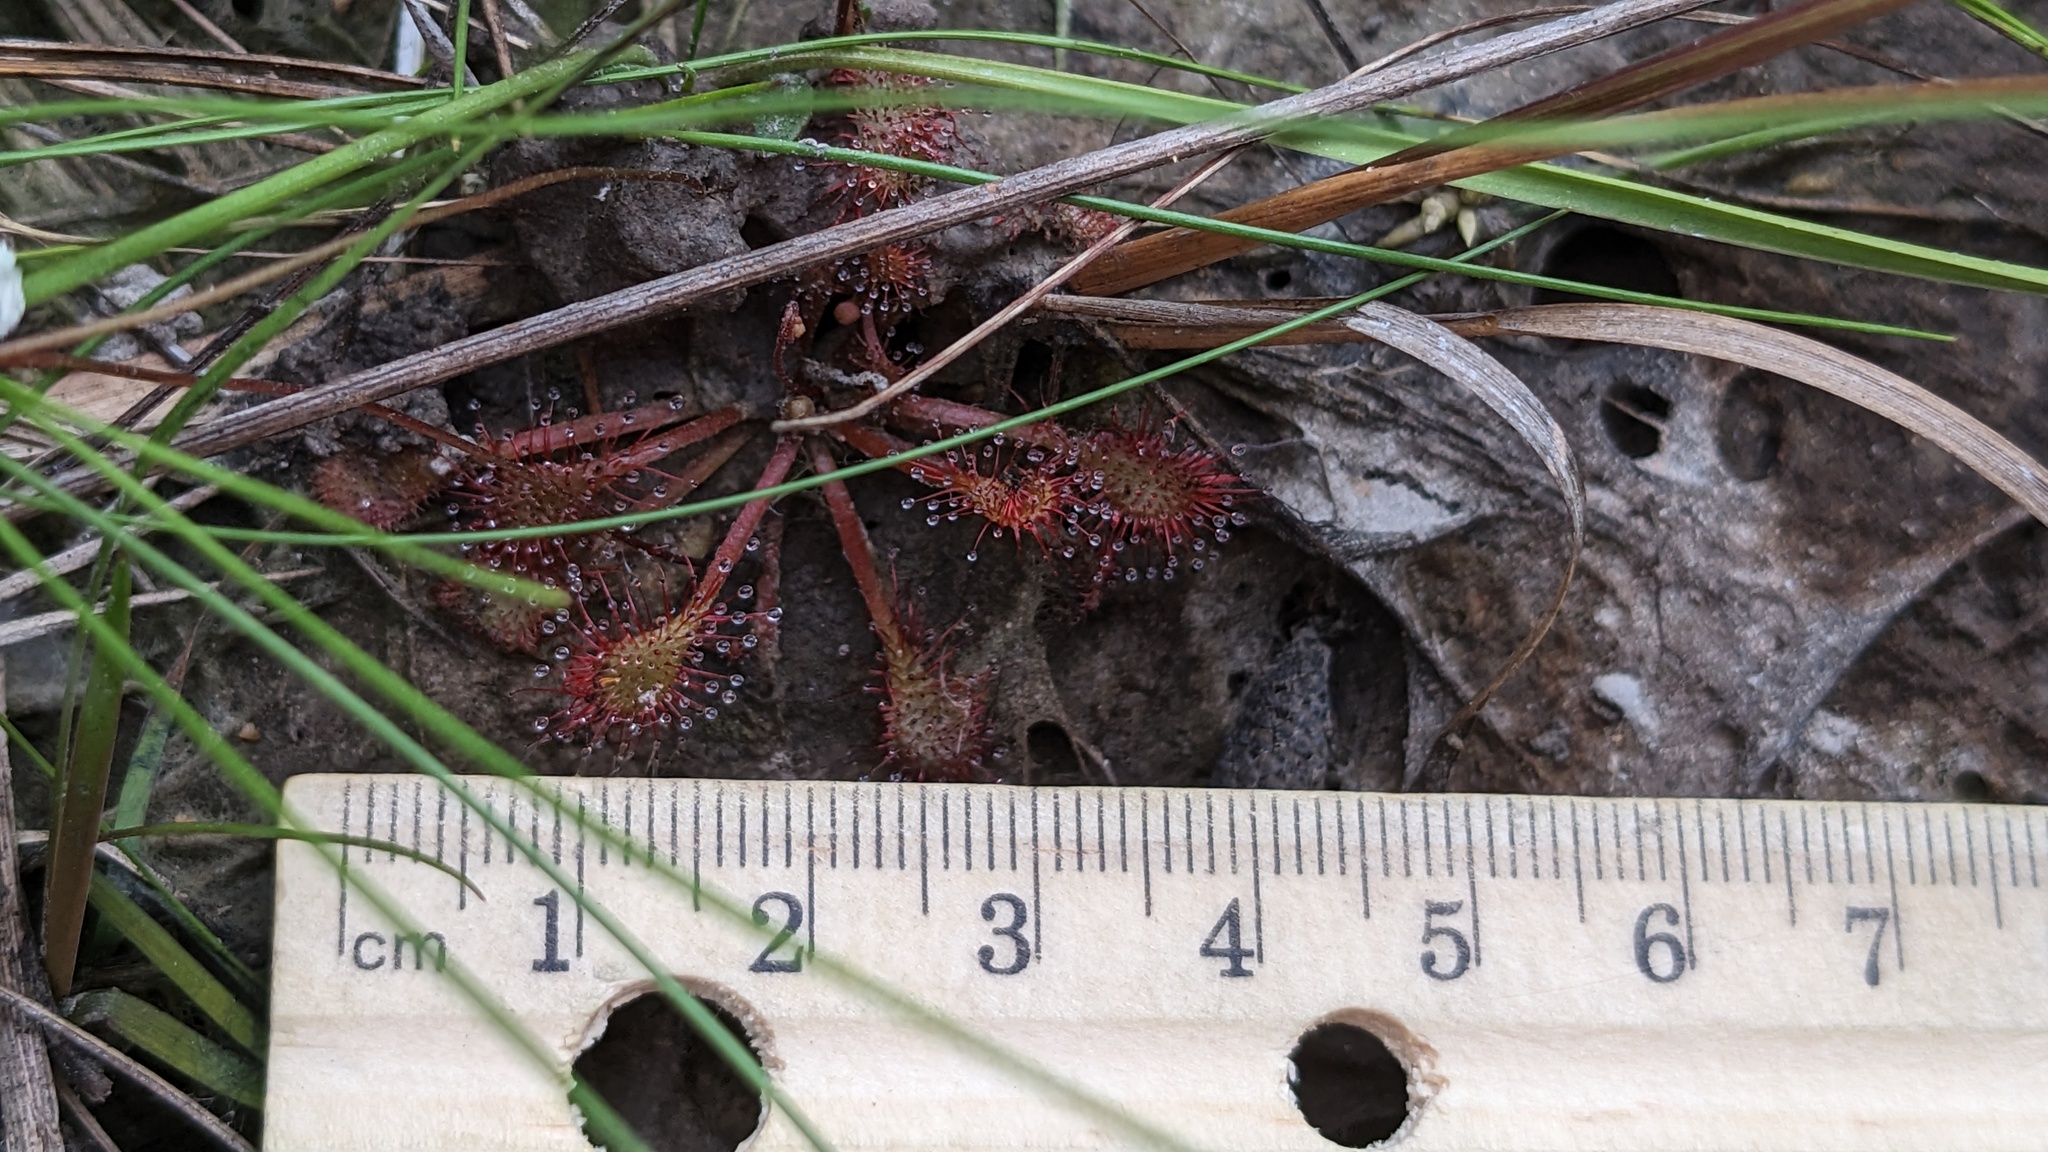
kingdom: Plantae
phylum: Tracheophyta
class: Magnoliopsida
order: Caryophyllales
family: Droseraceae
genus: Drosera
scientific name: Drosera capillaris
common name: Pink sundew
